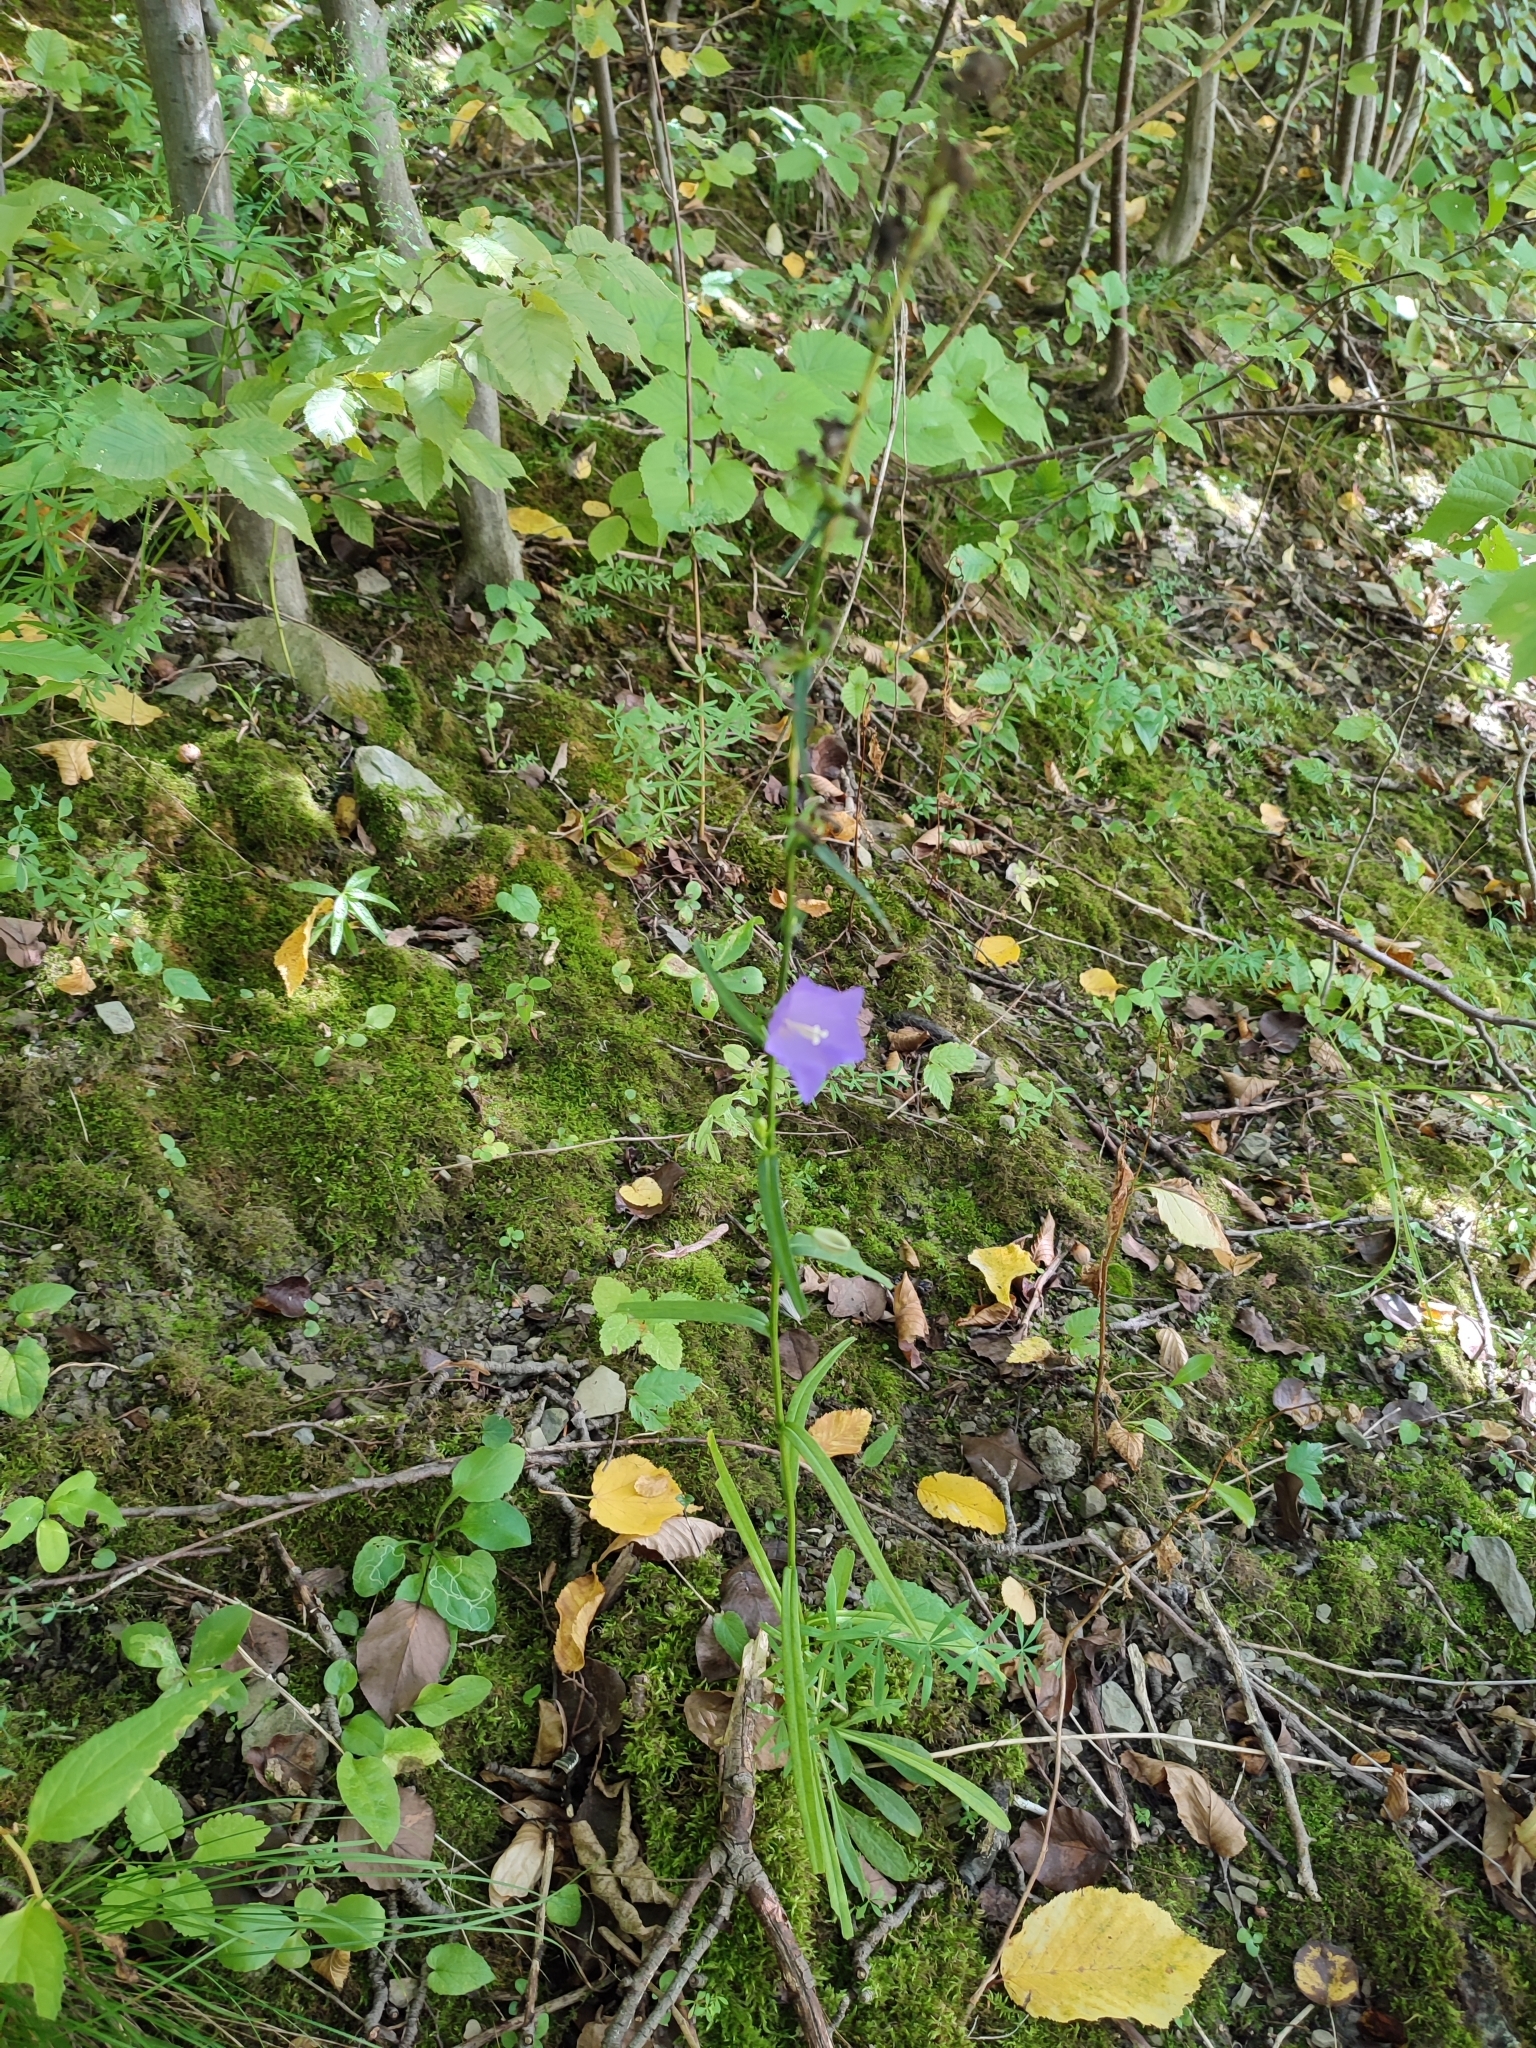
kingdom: Plantae
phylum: Tracheophyta
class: Magnoliopsida
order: Asterales
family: Campanulaceae
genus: Campanula
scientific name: Campanula persicifolia
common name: Peach-leaved bellflower
